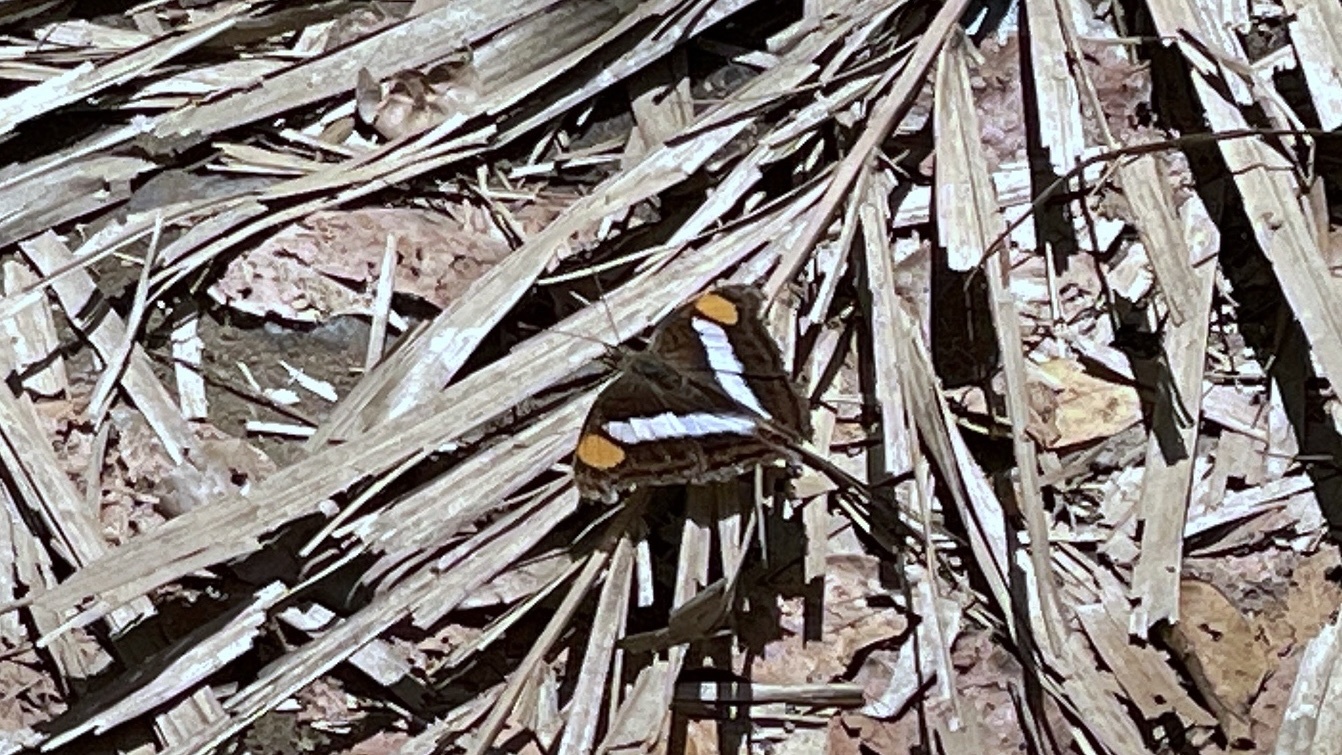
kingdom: Animalia
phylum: Arthropoda
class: Insecta
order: Lepidoptera
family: Nymphalidae
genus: Doxocopa
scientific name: Doxocopa laure
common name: Silver emperor
